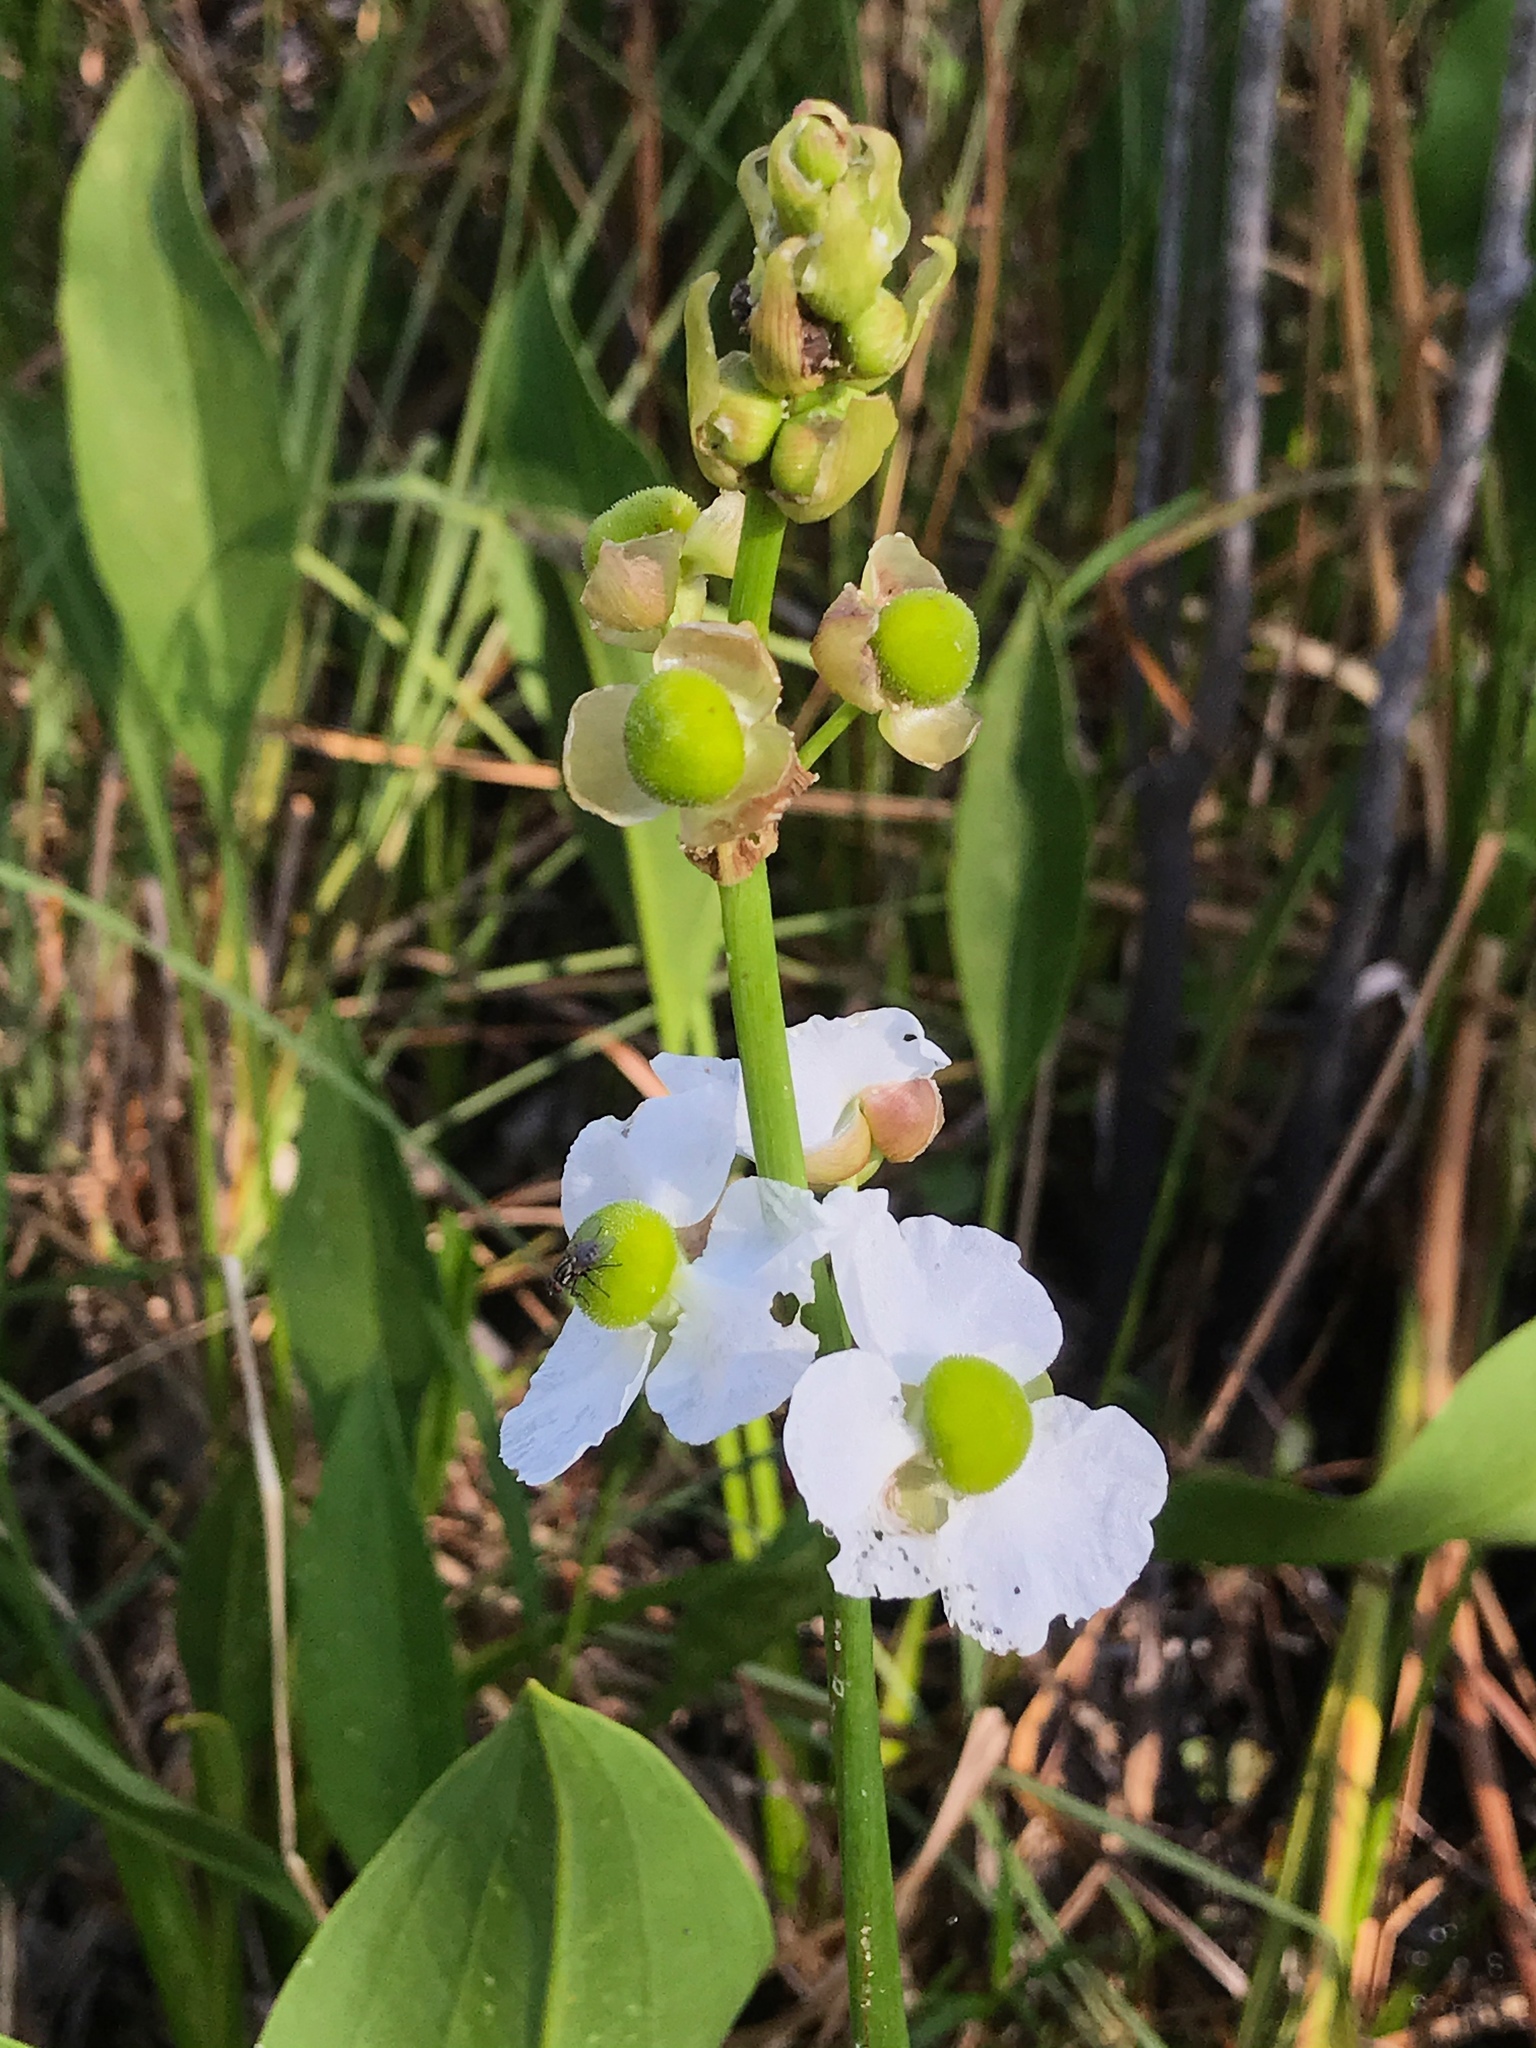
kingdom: Plantae
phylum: Tracheophyta
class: Liliopsida
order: Alismatales
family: Alismataceae
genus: Sagittaria
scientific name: Sagittaria lancifolia
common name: Lance-leaf arrowhead
